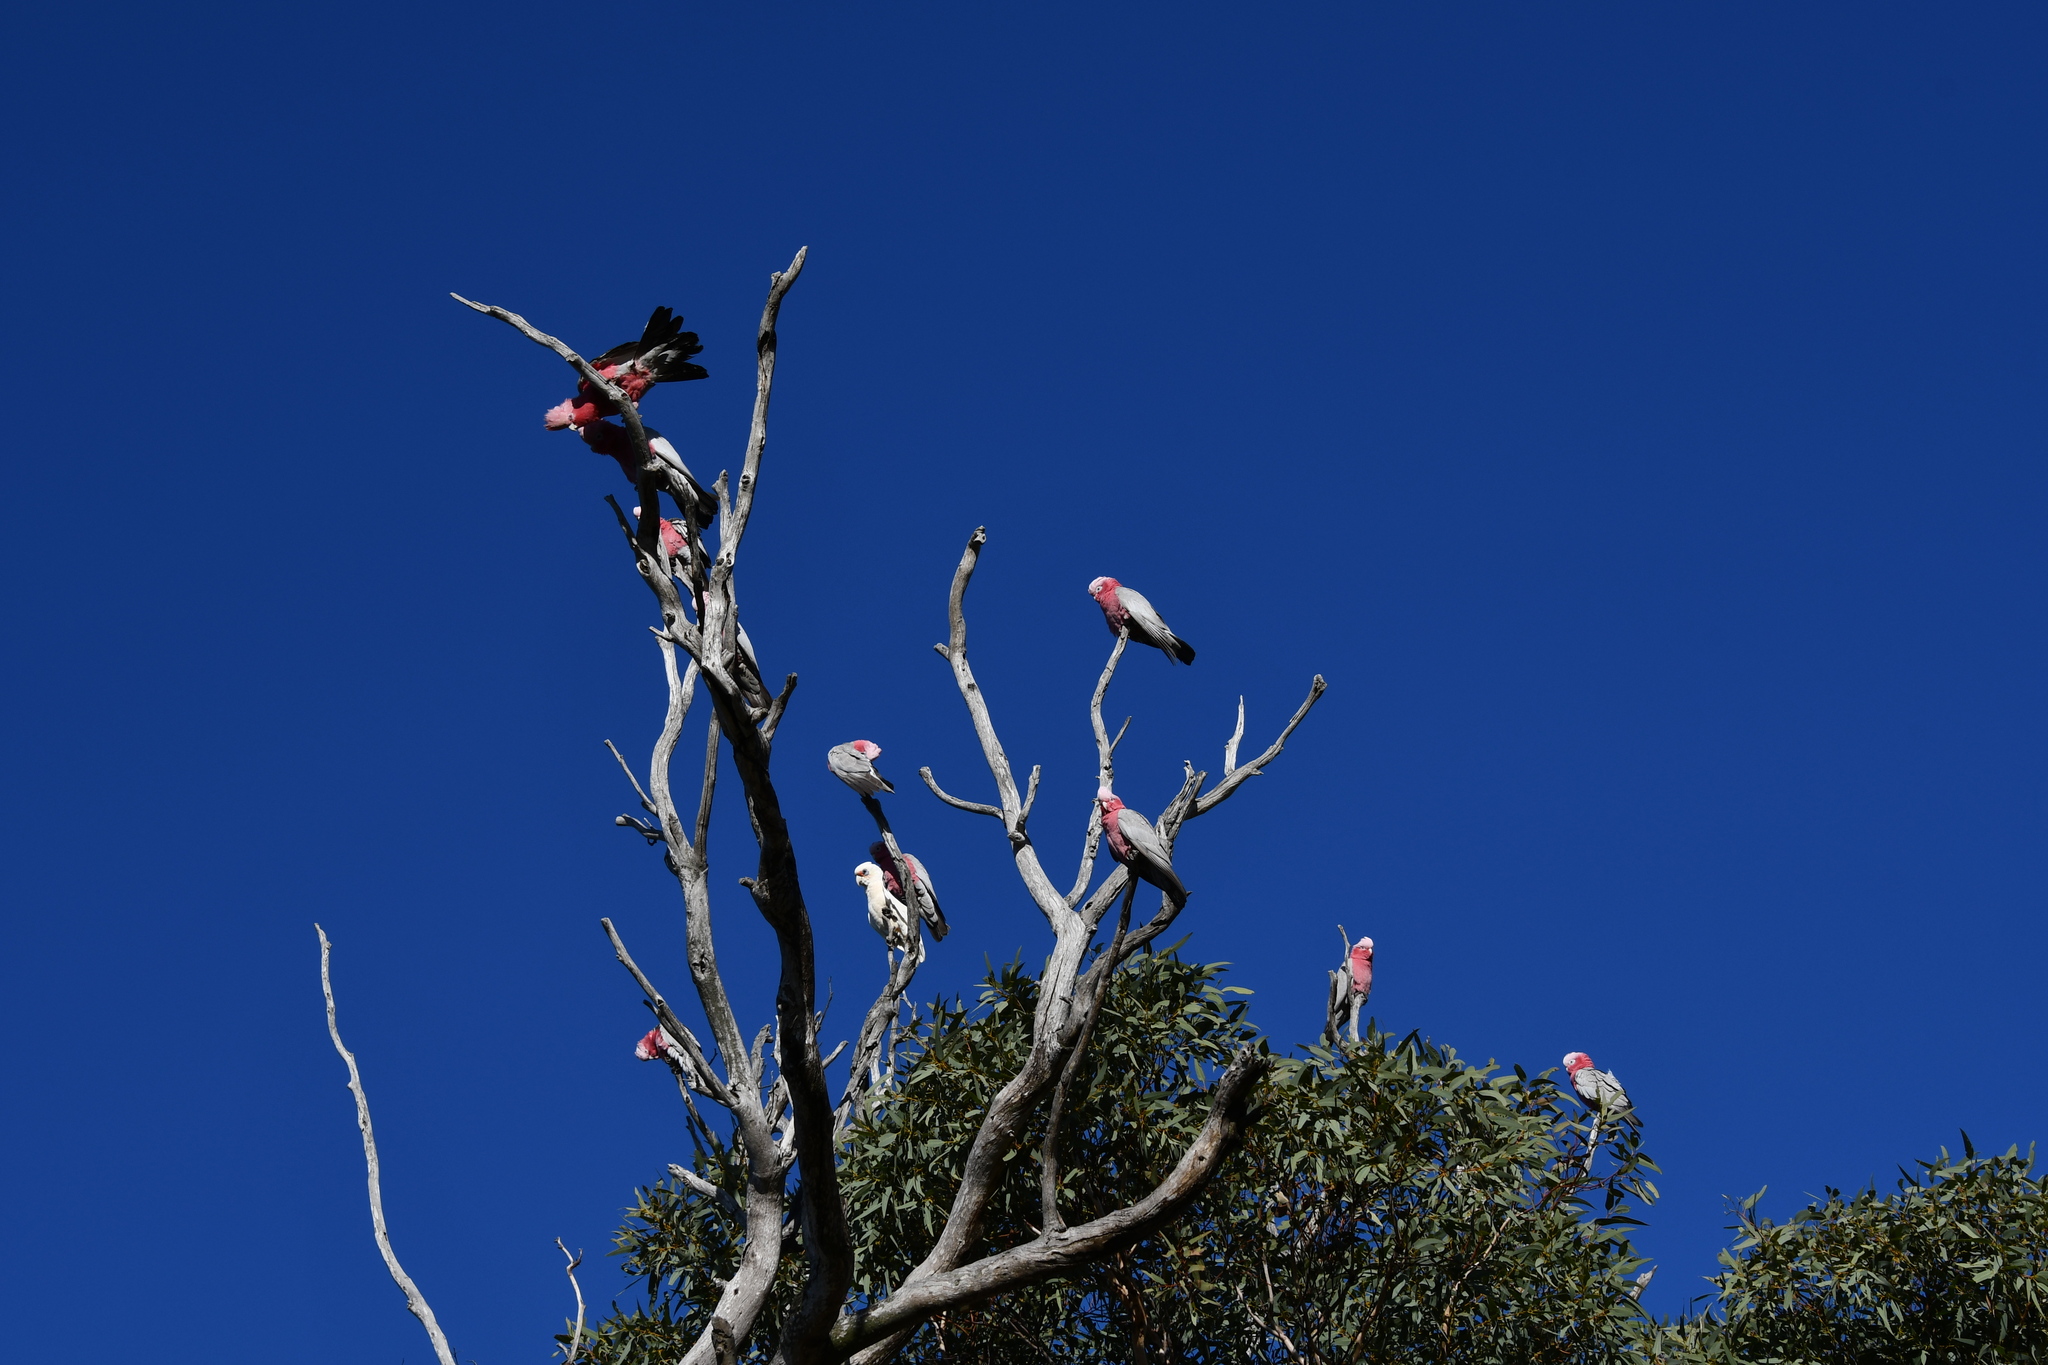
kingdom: Animalia
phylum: Chordata
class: Aves
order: Psittaciformes
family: Psittacidae
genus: Eolophus
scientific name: Eolophus roseicapilla
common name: Galah
